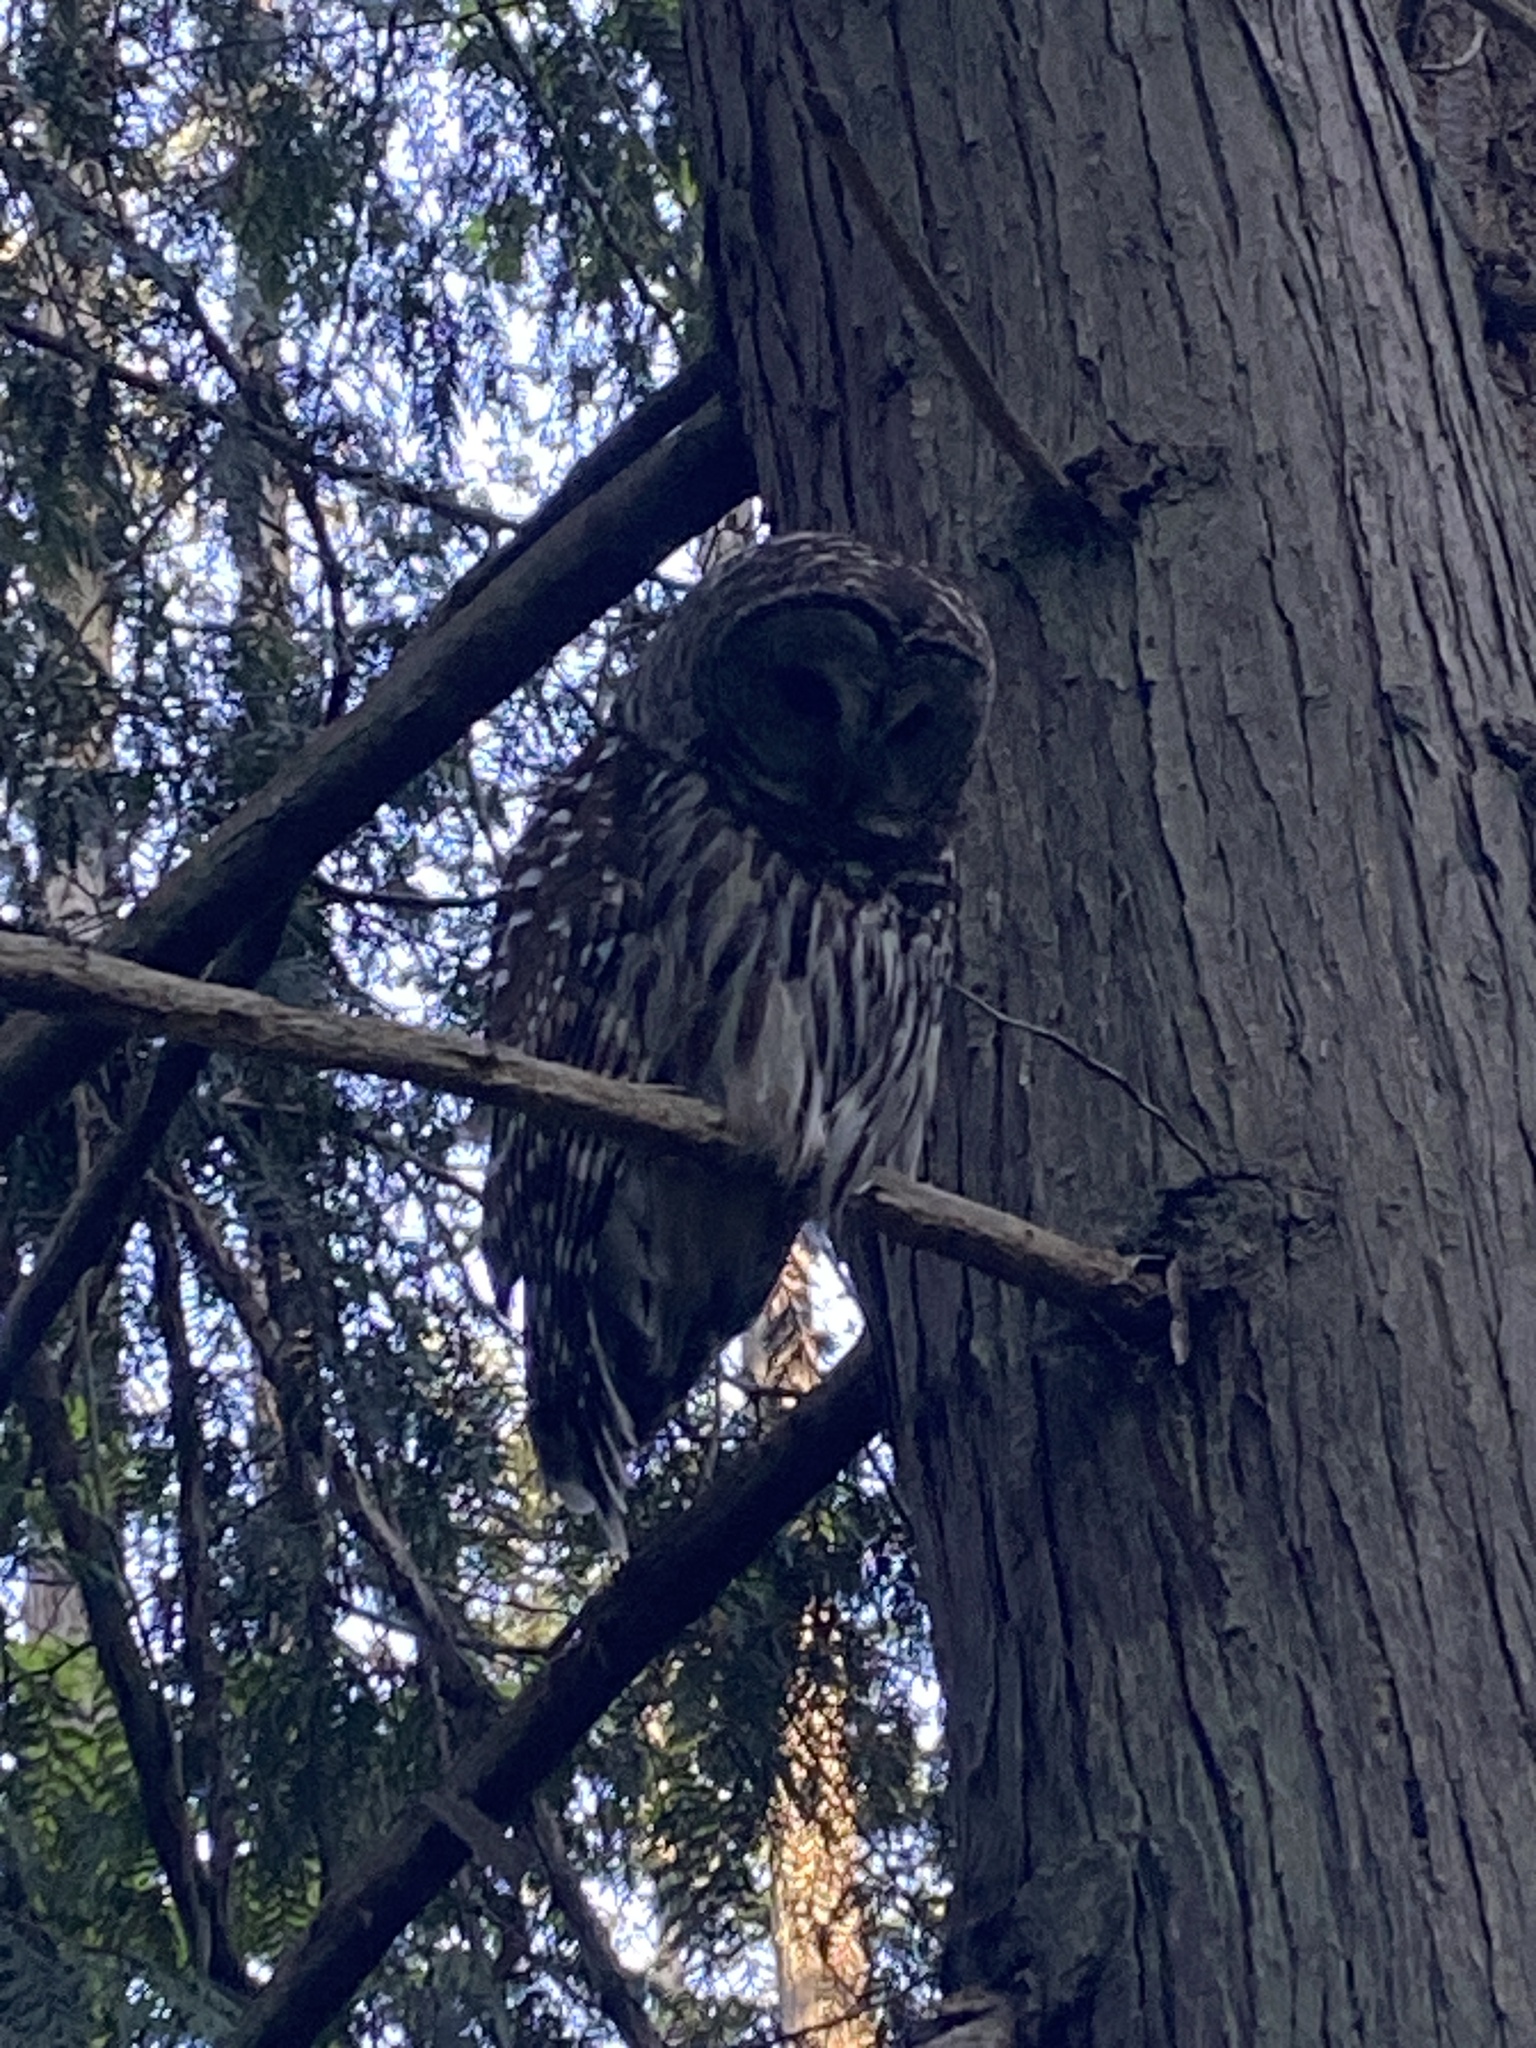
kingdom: Animalia
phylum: Chordata
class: Aves
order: Strigiformes
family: Strigidae
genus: Strix
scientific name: Strix varia
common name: Barred owl
